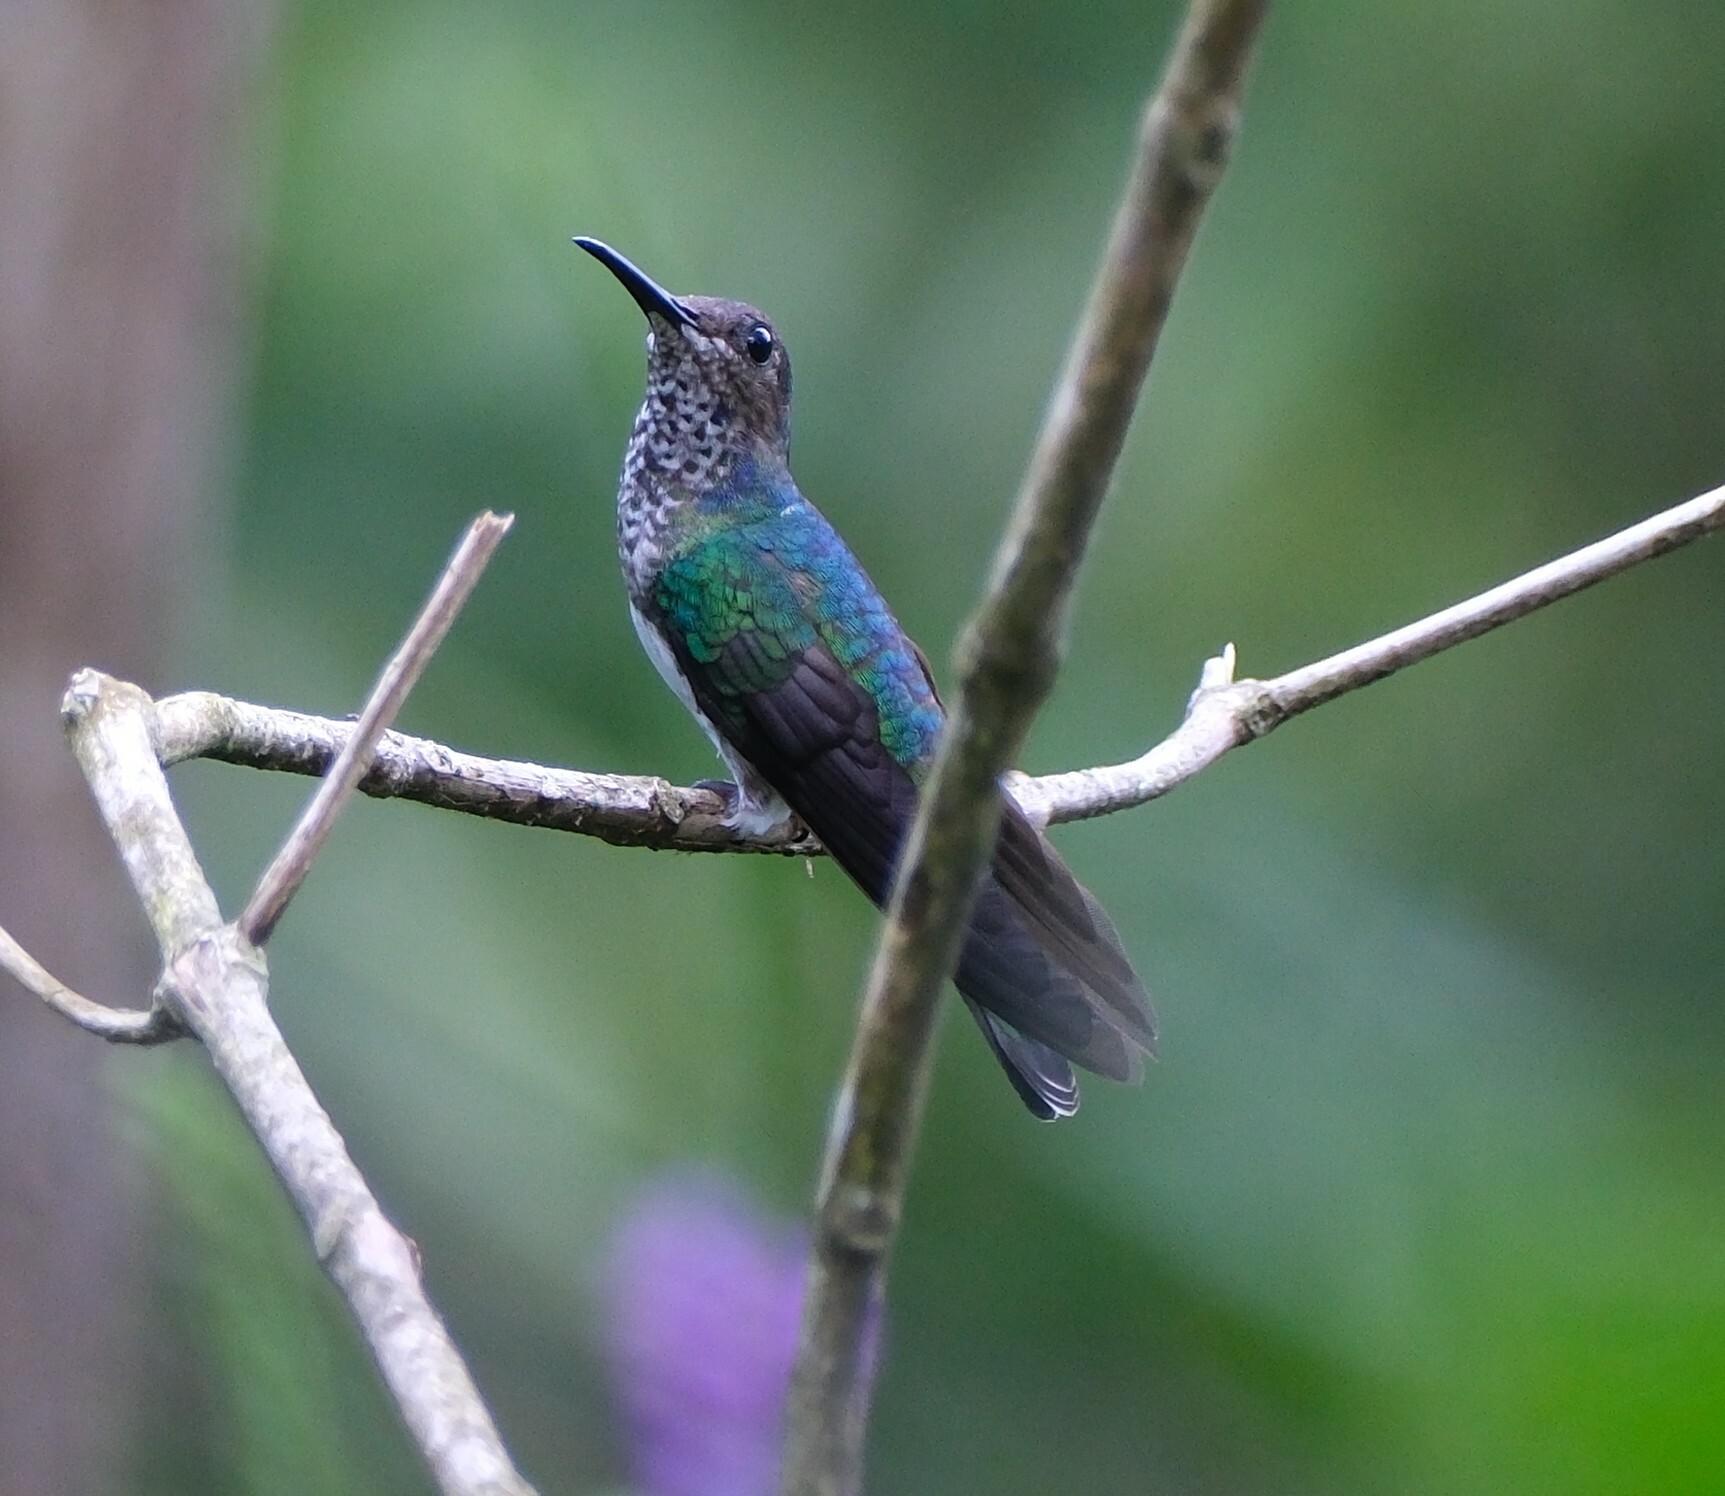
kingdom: Animalia
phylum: Chordata
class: Aves
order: Apodiformes
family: Trochilidae
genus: Florisuga
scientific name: Florisuga mellivora
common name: White-necked jacobin
